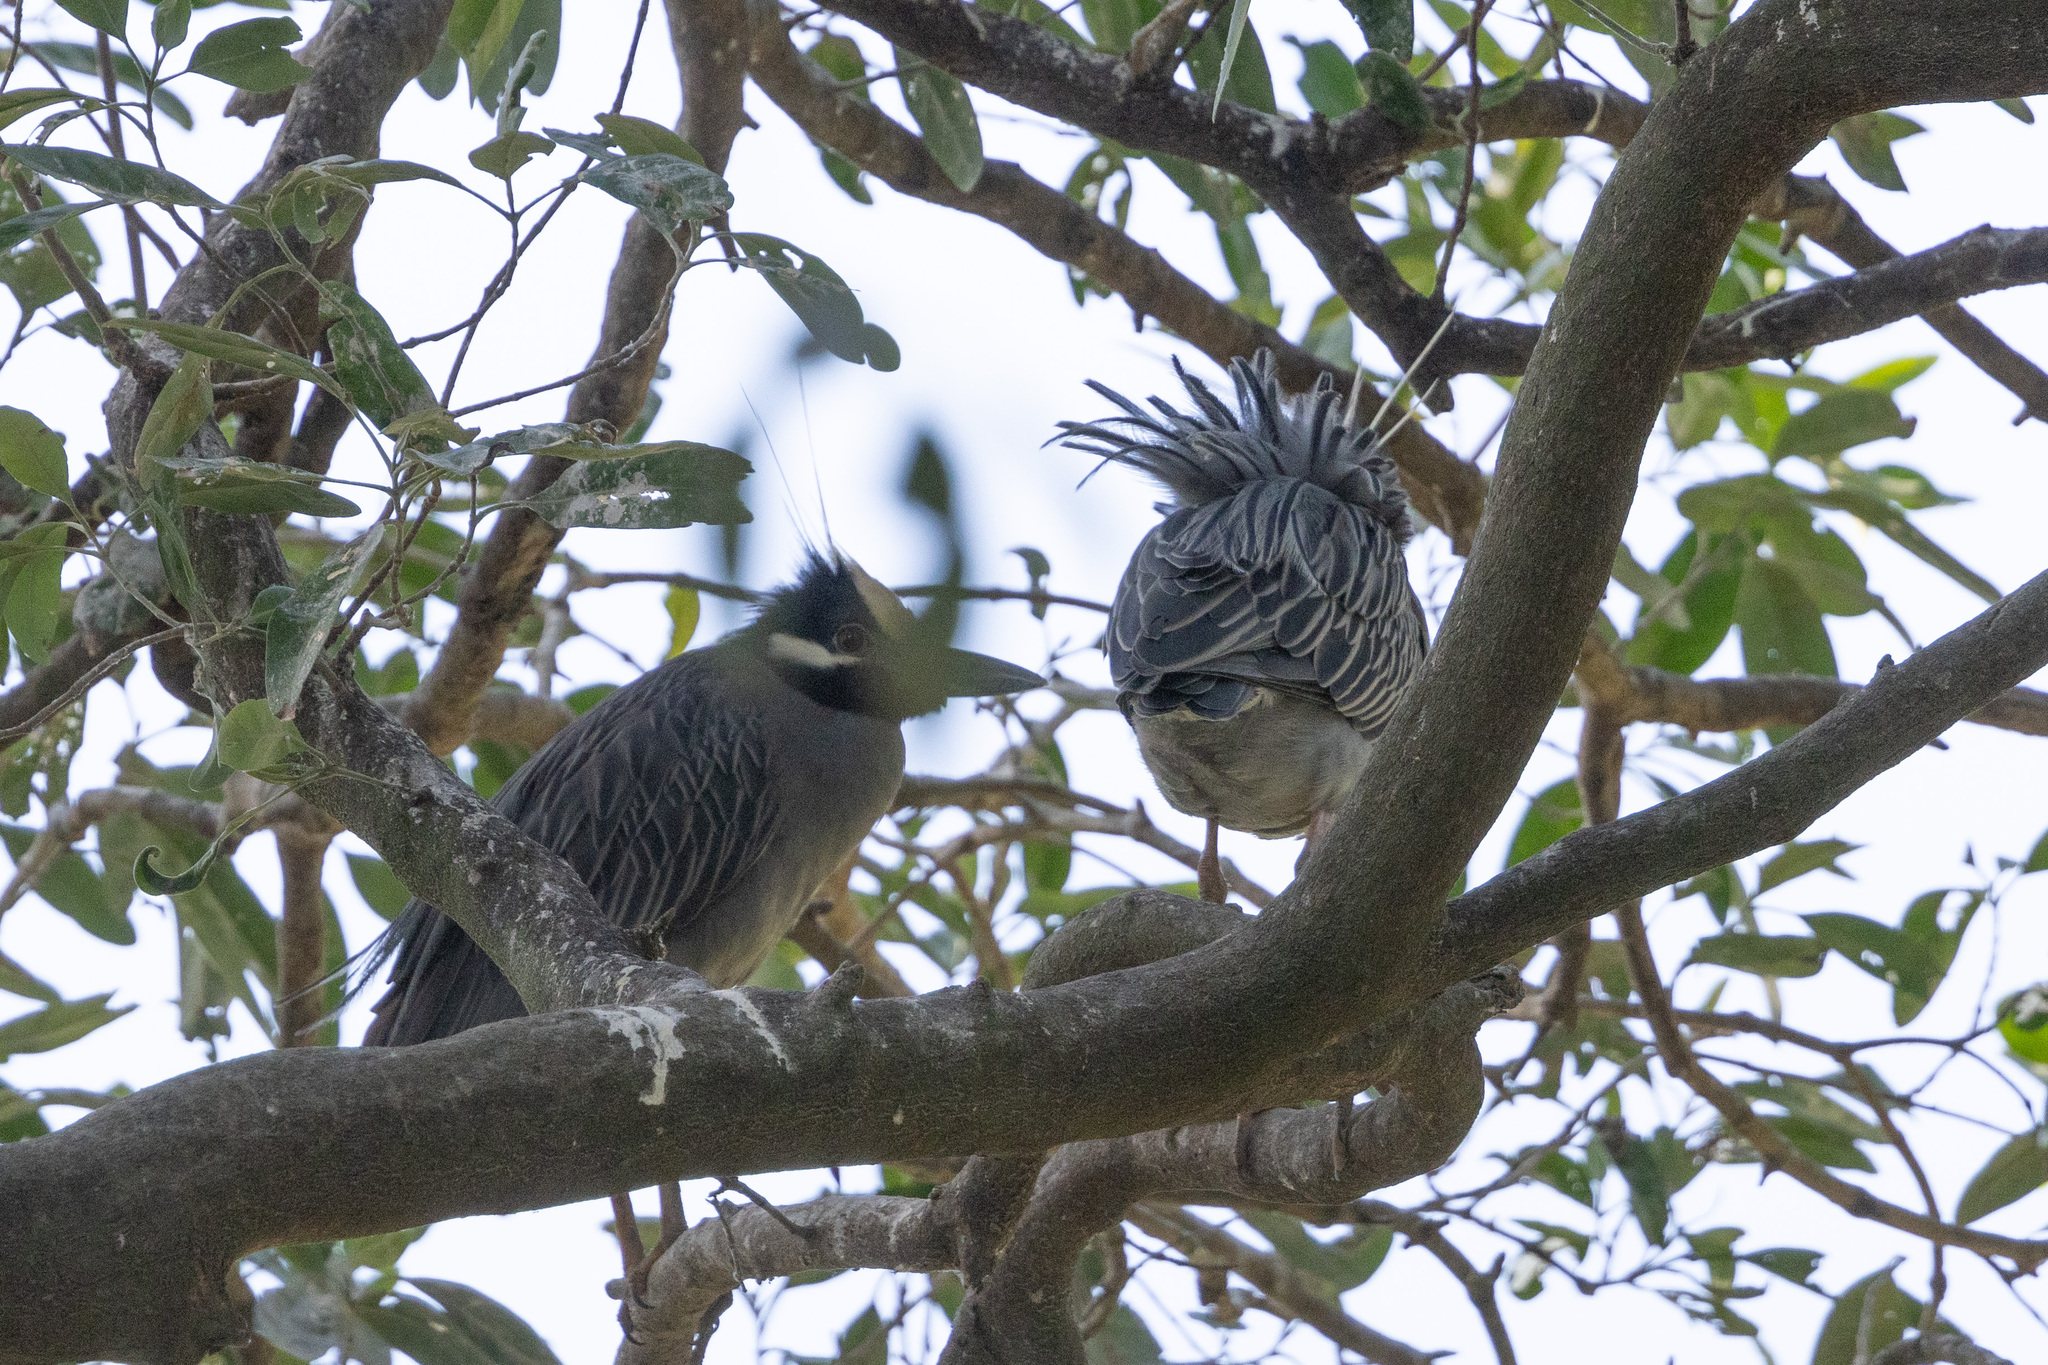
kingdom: Animalia
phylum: Chordata
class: Aves
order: Pelecaniformes
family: Ardeidae
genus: Nyctanassa
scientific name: Nyctanassa violacea
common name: Yellow-crowned night heron
